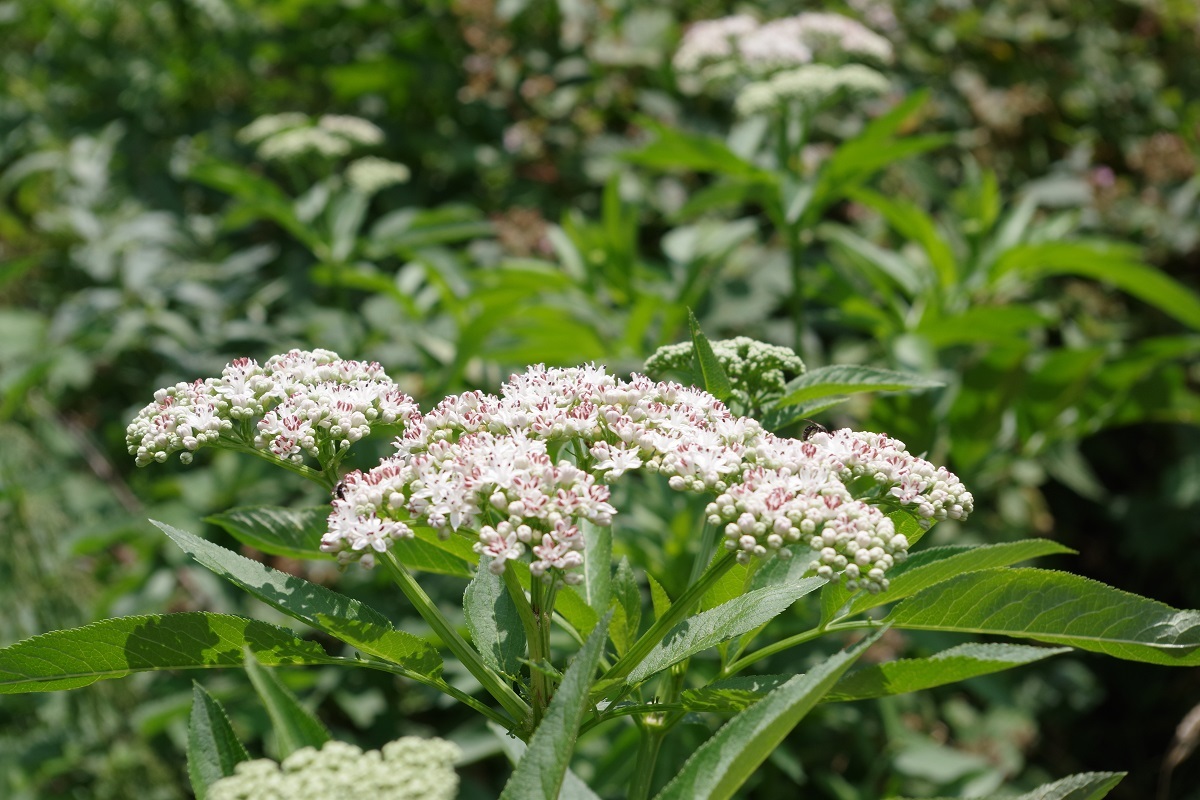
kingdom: Plantae
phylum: Tracheophyta
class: Magnoliopsida
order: Dipsacales
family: Viburnaceae
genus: Sambucus
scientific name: Sambucus ebulus
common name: Dwarf elder
